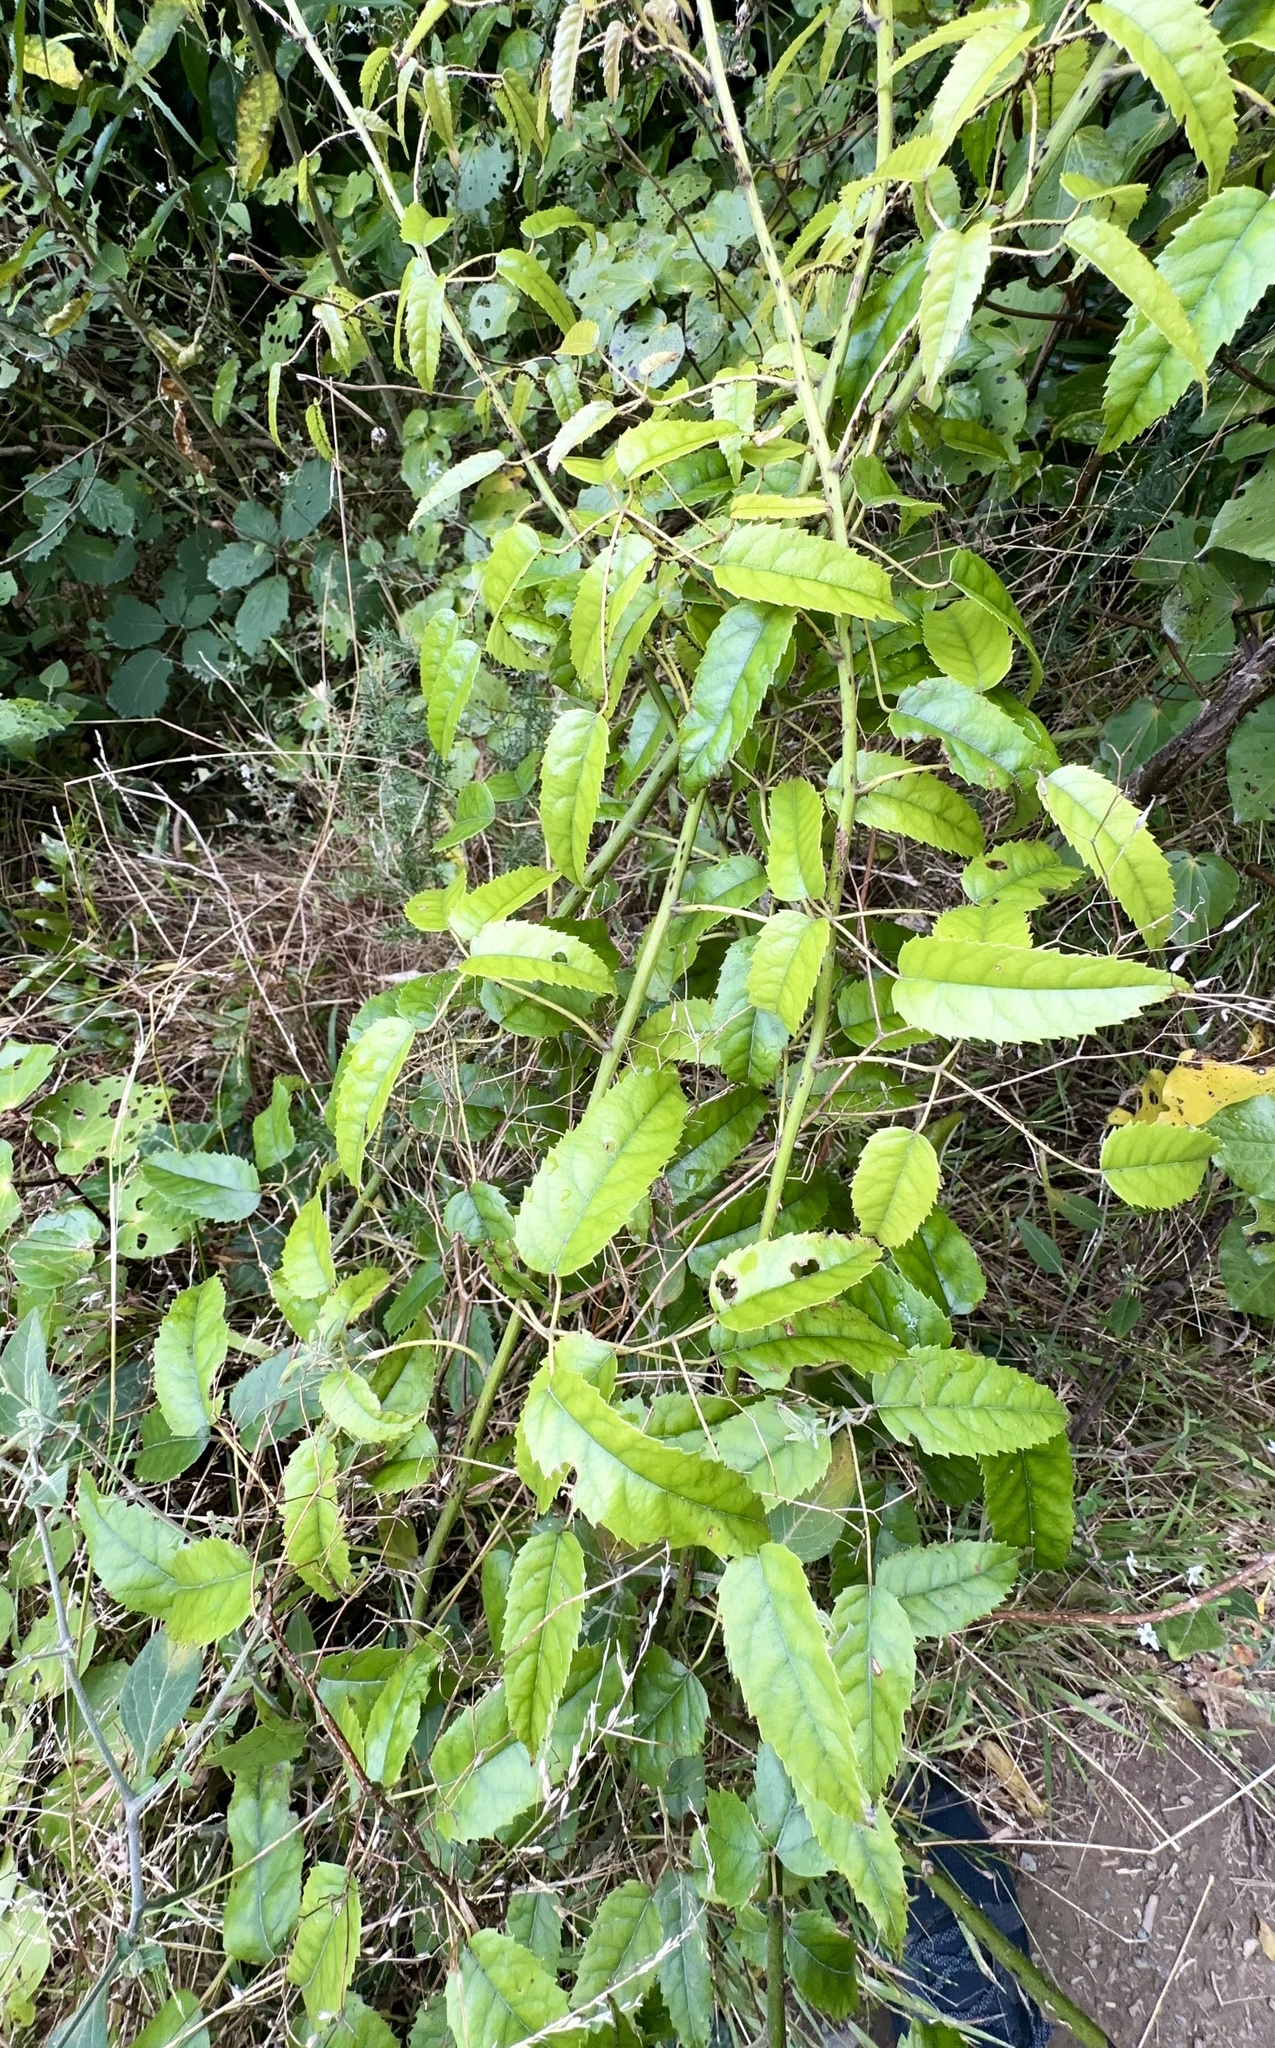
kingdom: Plantae
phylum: Tracheophyta
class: Magnoliopsida
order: Rosales
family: Rosaceae
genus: Rubus
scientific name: Rubus cissoides
